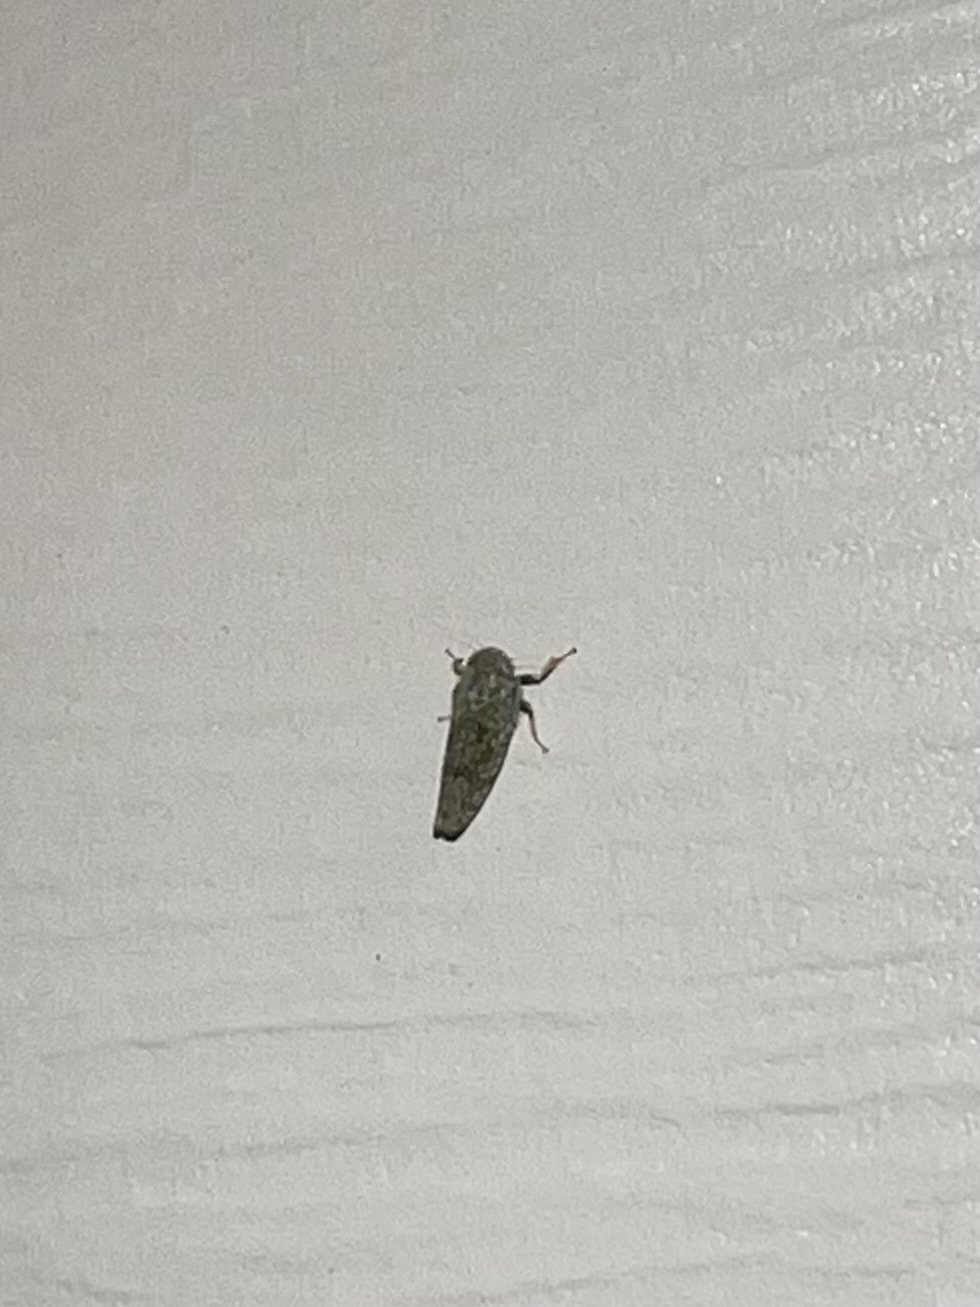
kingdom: Animalia
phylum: Arthropoda
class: Insecta
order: Hemiptera
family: Cicadellidae
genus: Orientus
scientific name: Orientus ishidae
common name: Japanese leafhopper
